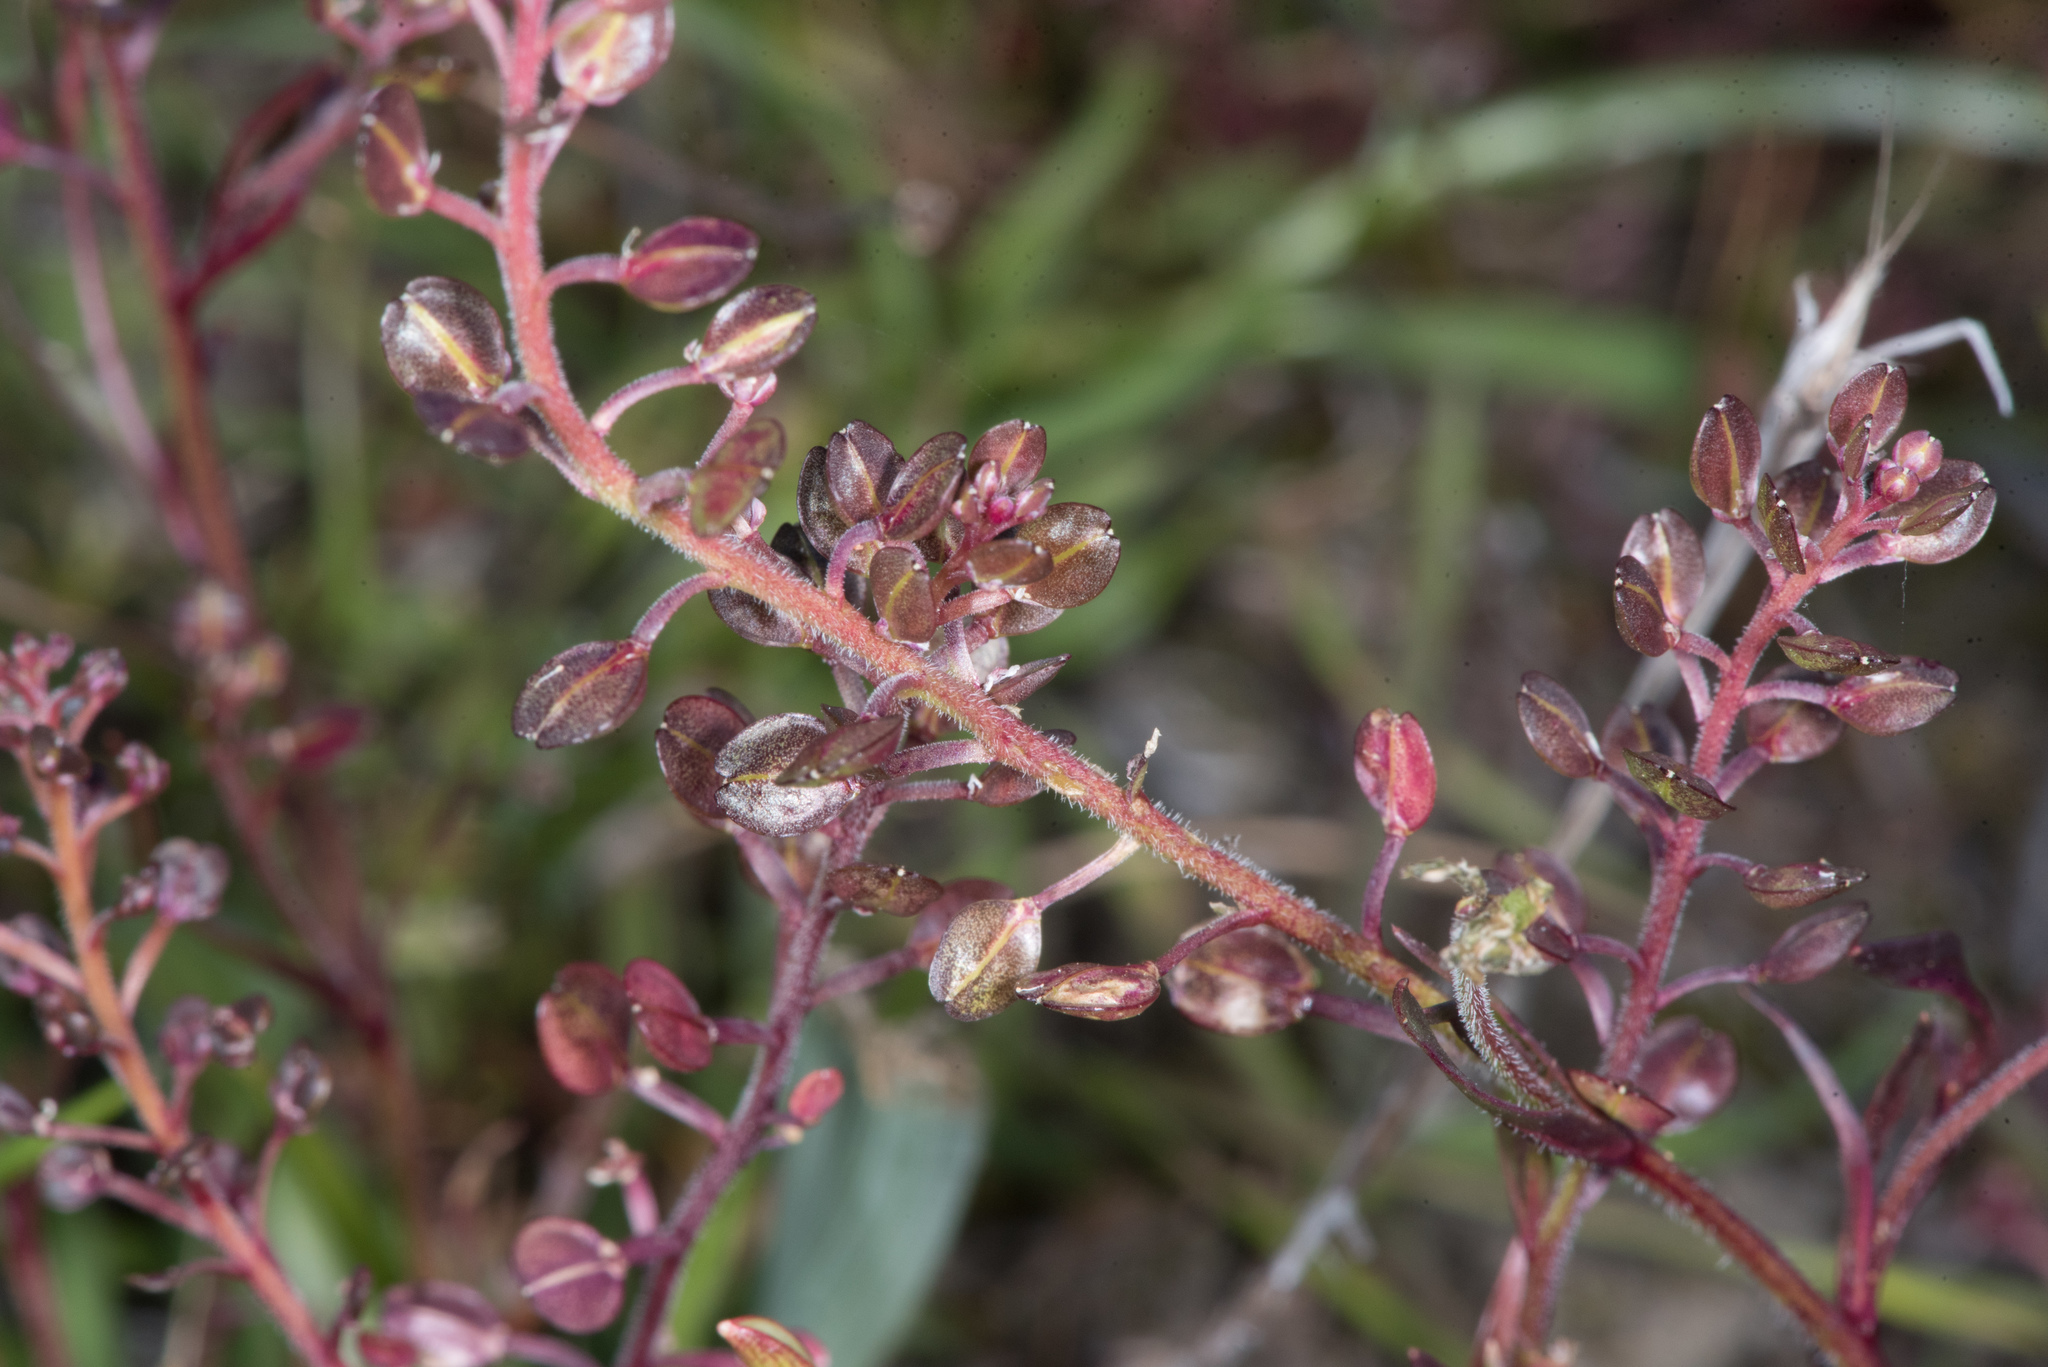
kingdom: Plantae
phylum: Tracheophyta
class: Magnoliopsida
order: Brassicales
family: Brassicaceae
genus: Lepidium
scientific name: Lepidium nitidum
